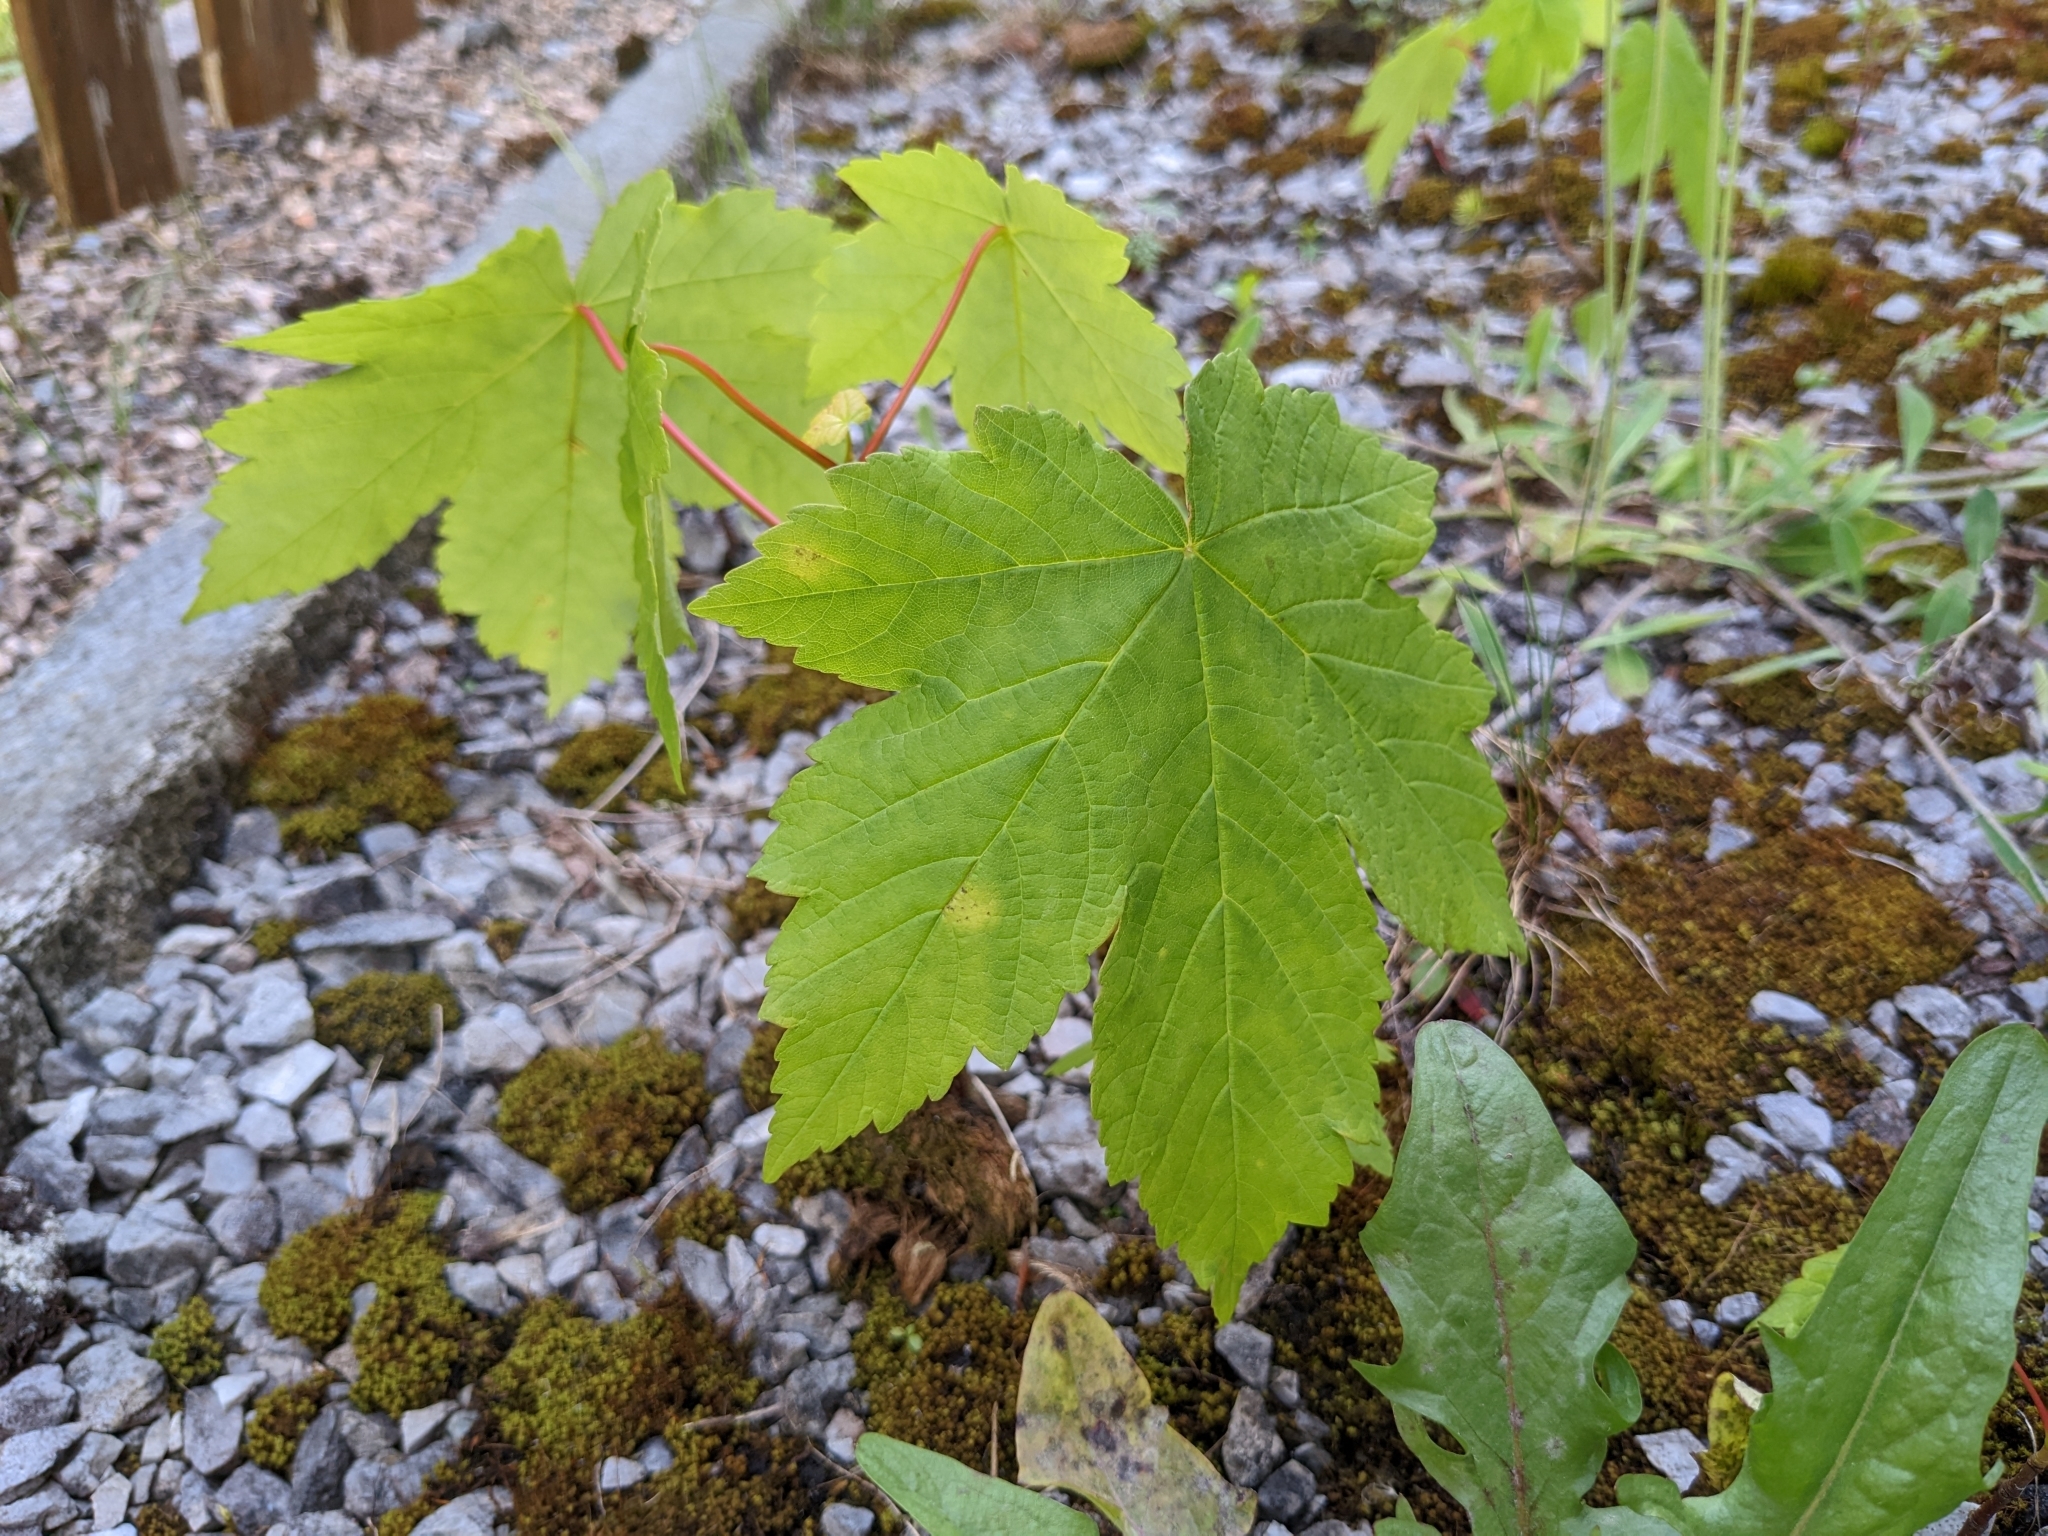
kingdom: Plantae
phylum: Tracheophyta
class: Magnoliopsida
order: Sapindales
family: Sapindaceae
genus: Acer
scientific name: Acer pseudoplatanus
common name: Sycamore
